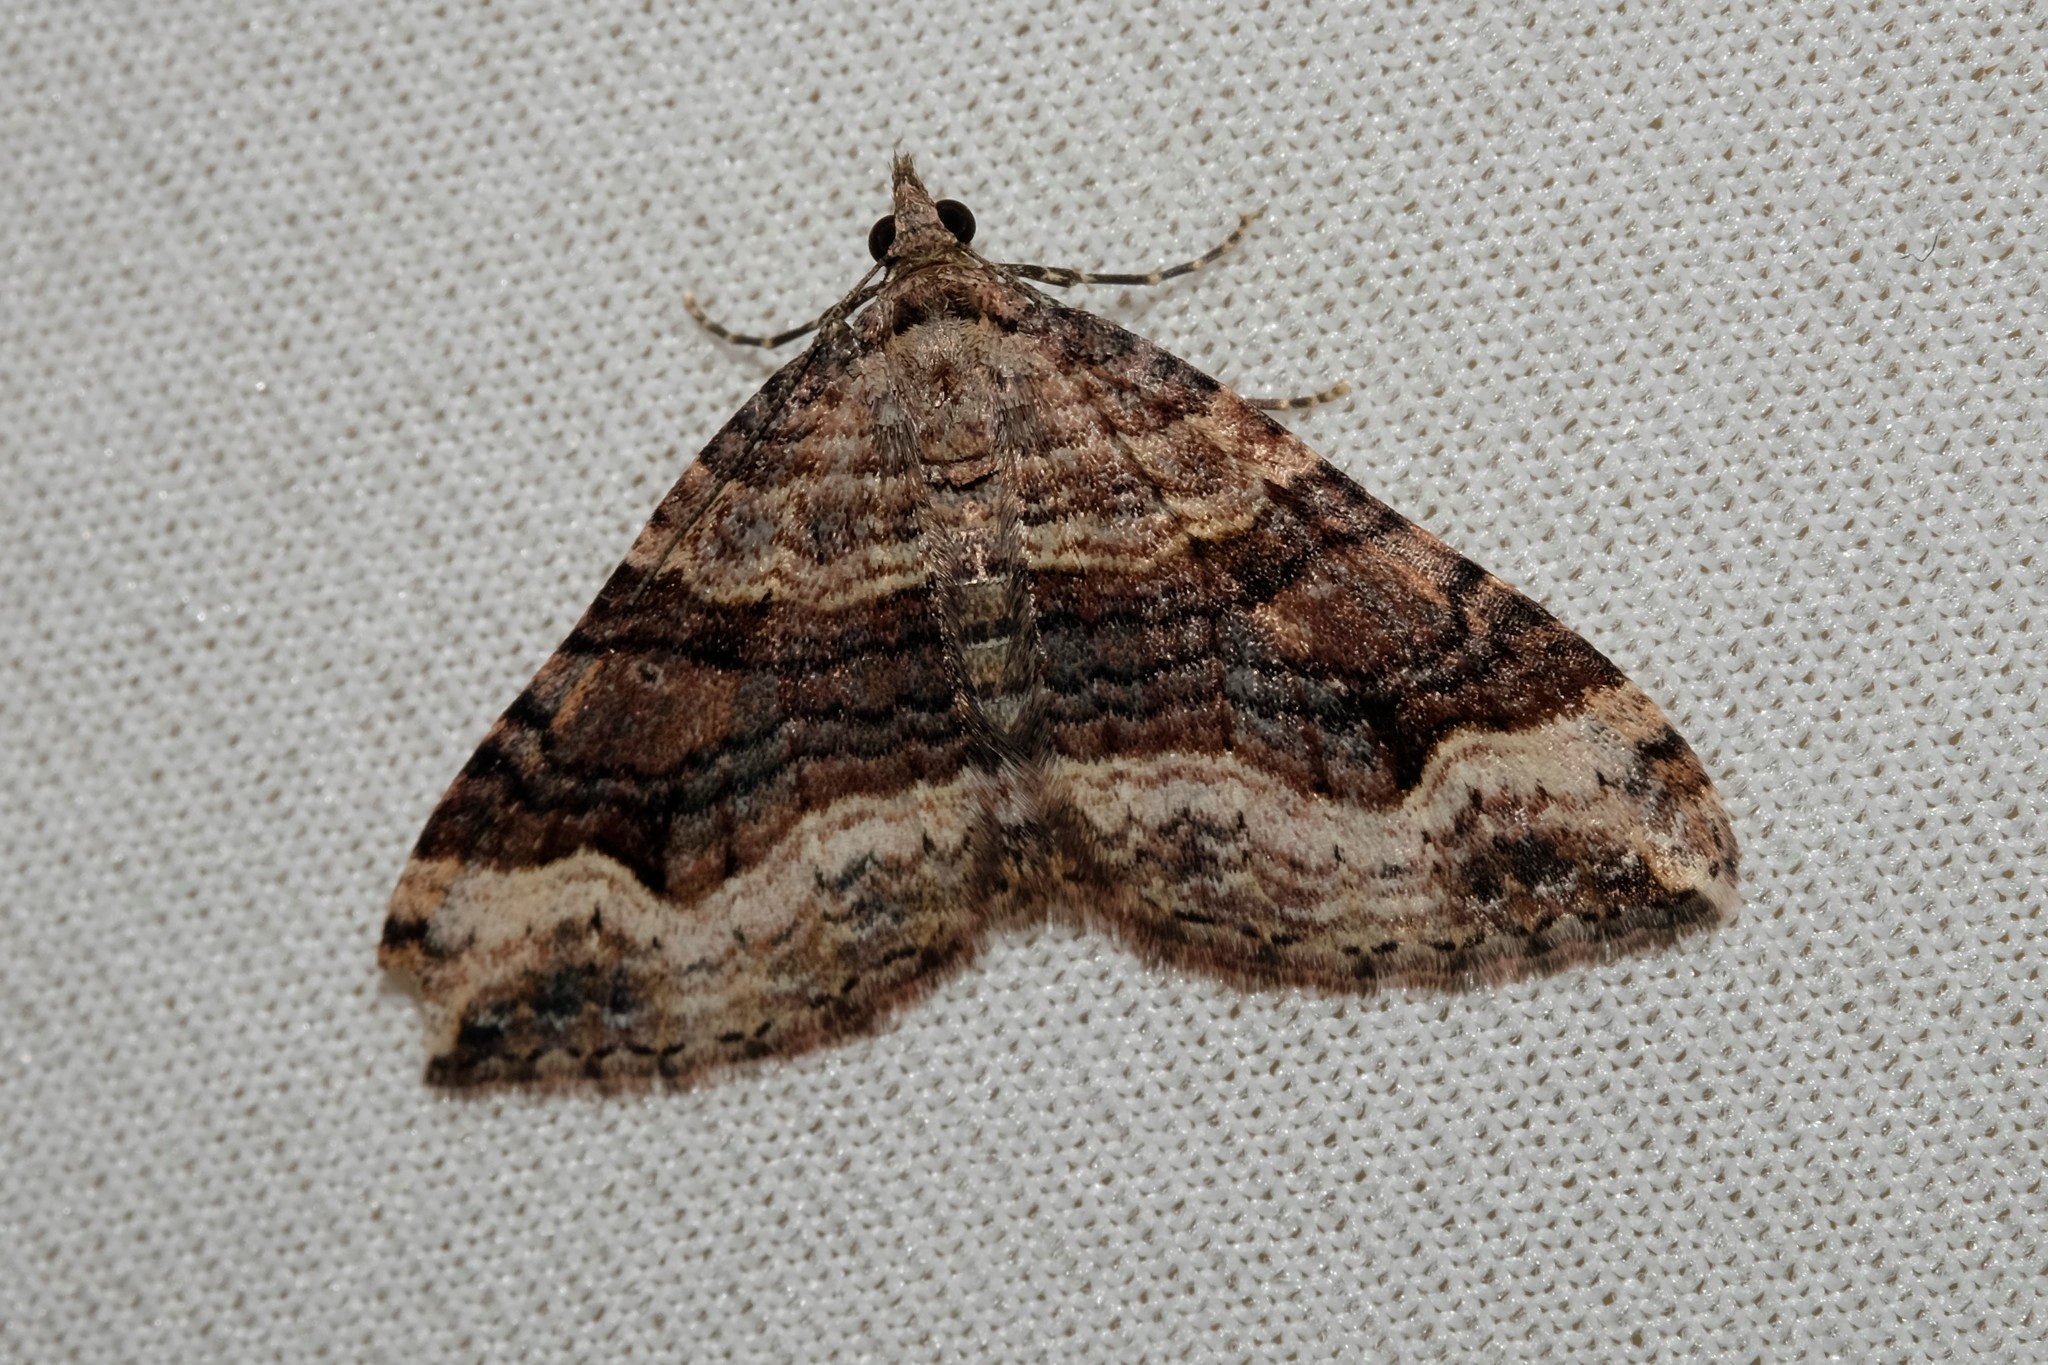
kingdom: Animalia
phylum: Arthropoda
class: Insecta
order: Lepidoptera
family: Geometridae
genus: Epyaxa
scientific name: Epyaxa subidaria
